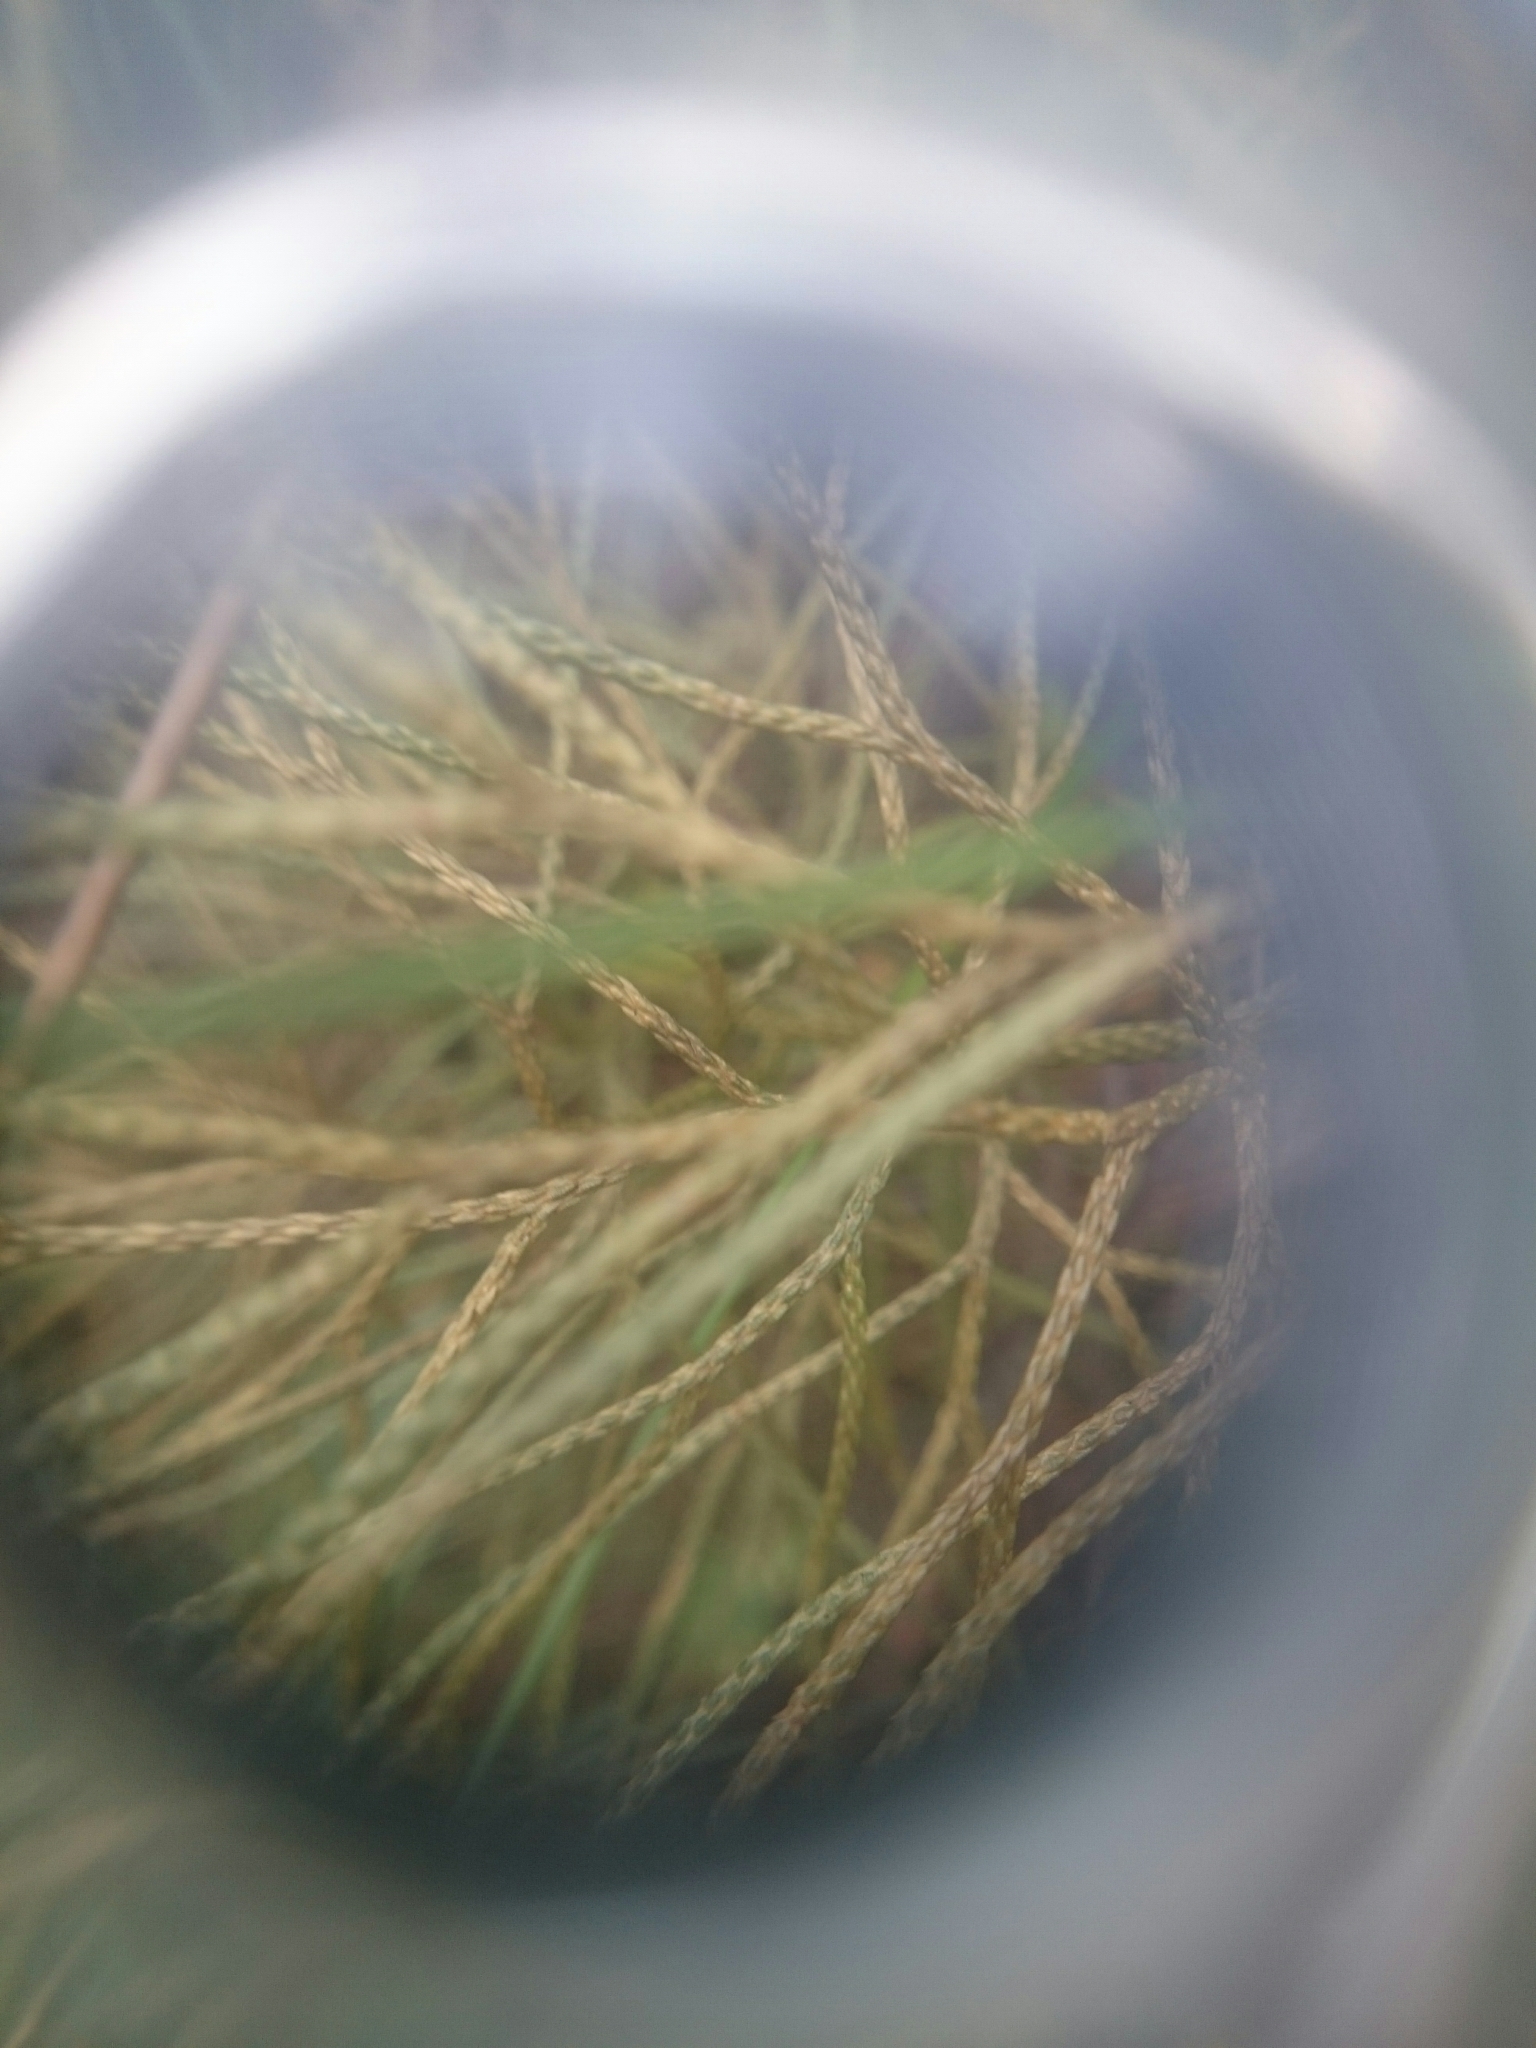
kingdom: Plantae
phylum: Tracheophyta
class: Lycopodiopsida
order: Lycopodiales
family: Lycopodiaceae
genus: Pseudolycopodium
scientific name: Pseudolycopodium densum
